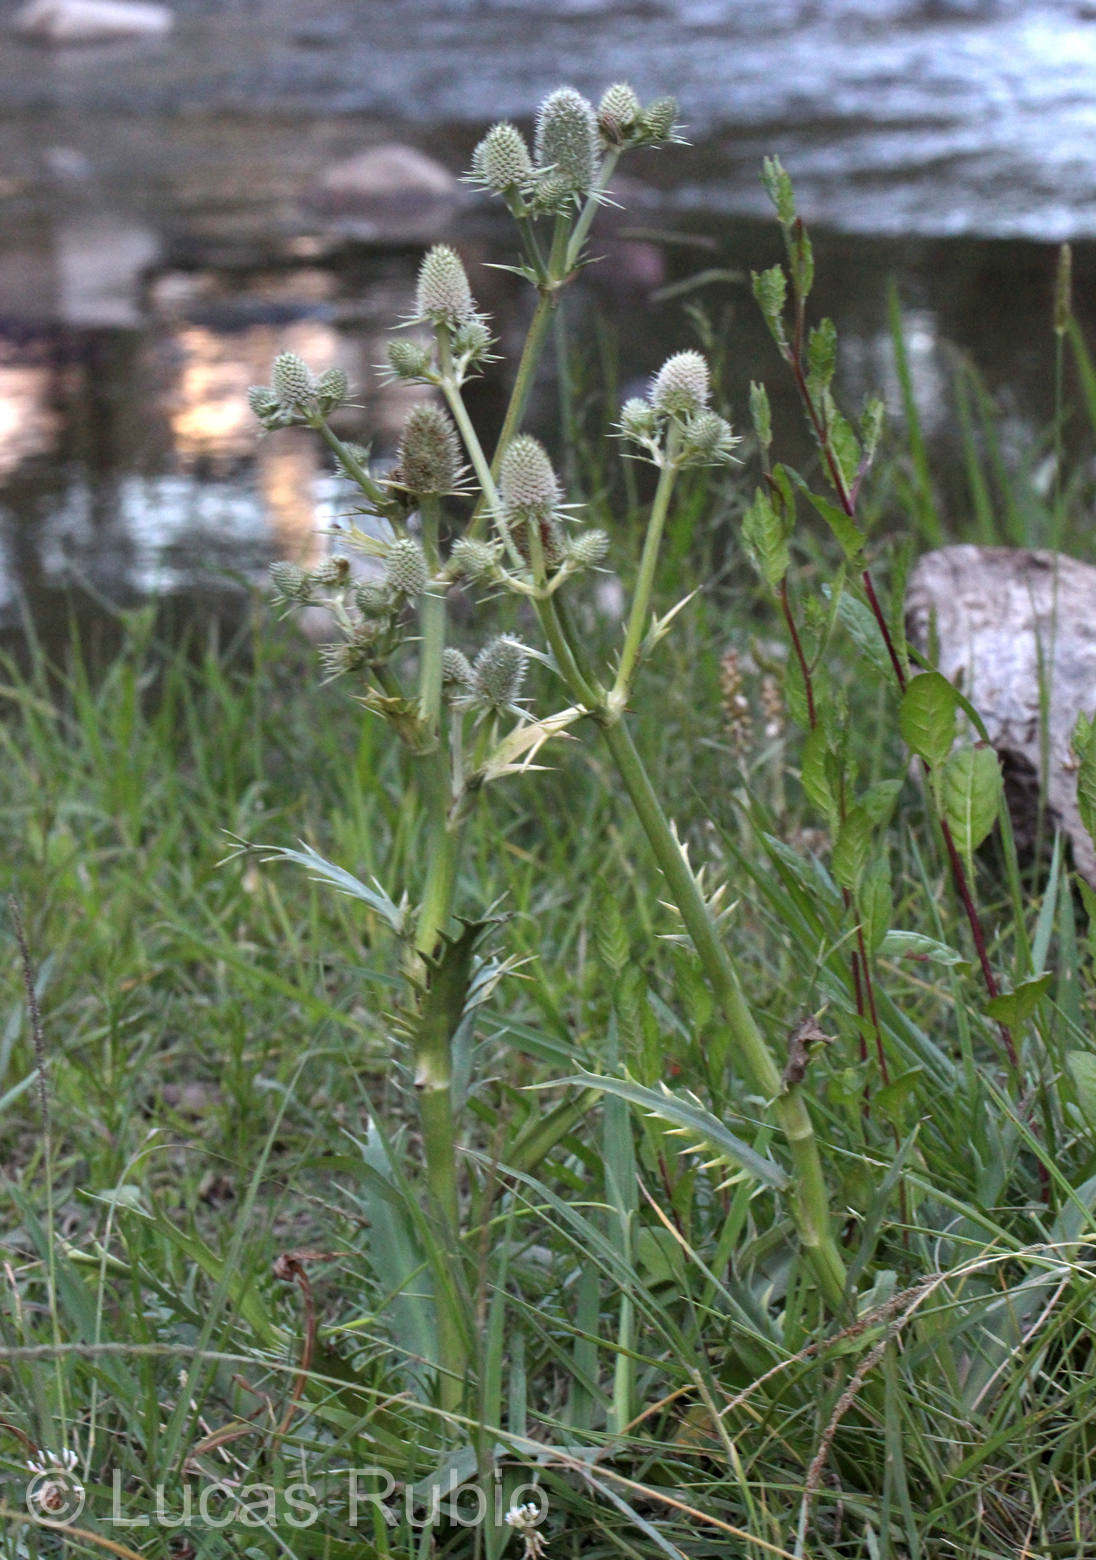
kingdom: Plantae
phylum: Tracheophyta
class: Magnoliopsida
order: Apiales
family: Apiaceae
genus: Eryngium
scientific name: Eryngium agavifolium
